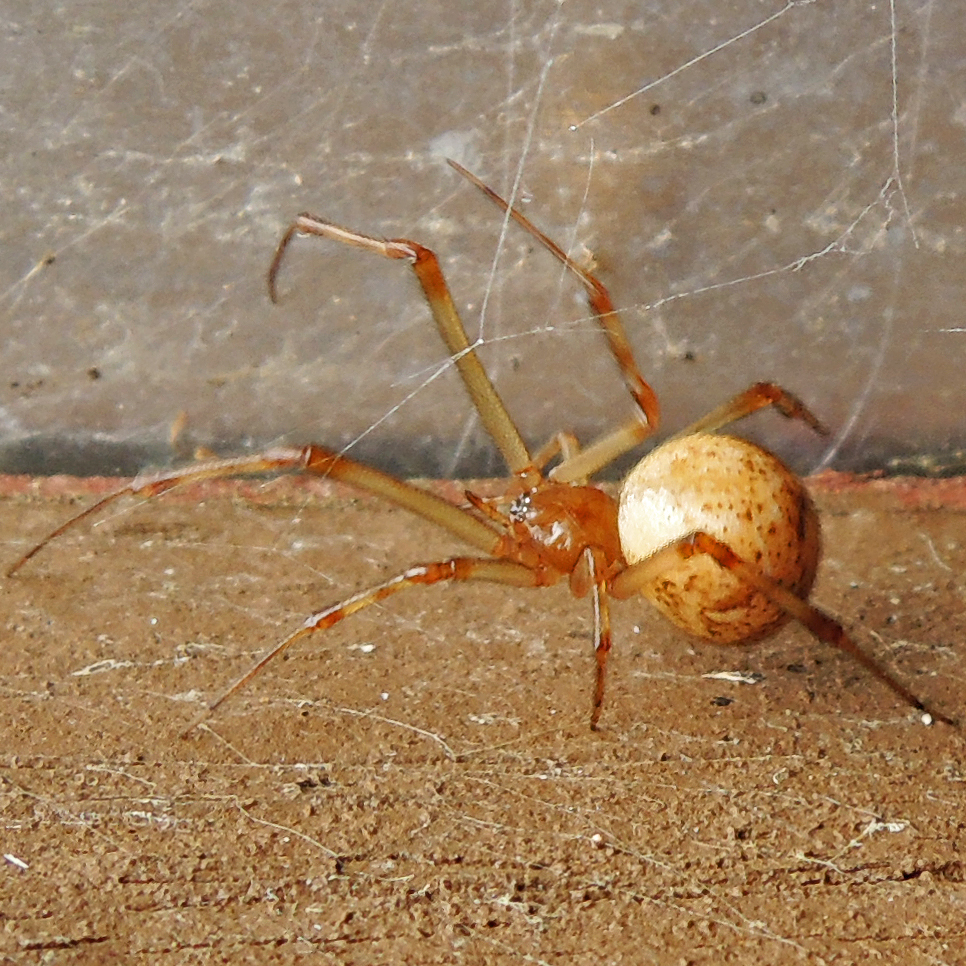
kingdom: Animalia
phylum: Arthropoda
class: Arachnida
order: Araneae
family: Theridiidae
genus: Parasteatoda
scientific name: Parasteatoda tepidariorum
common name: Common house spider
